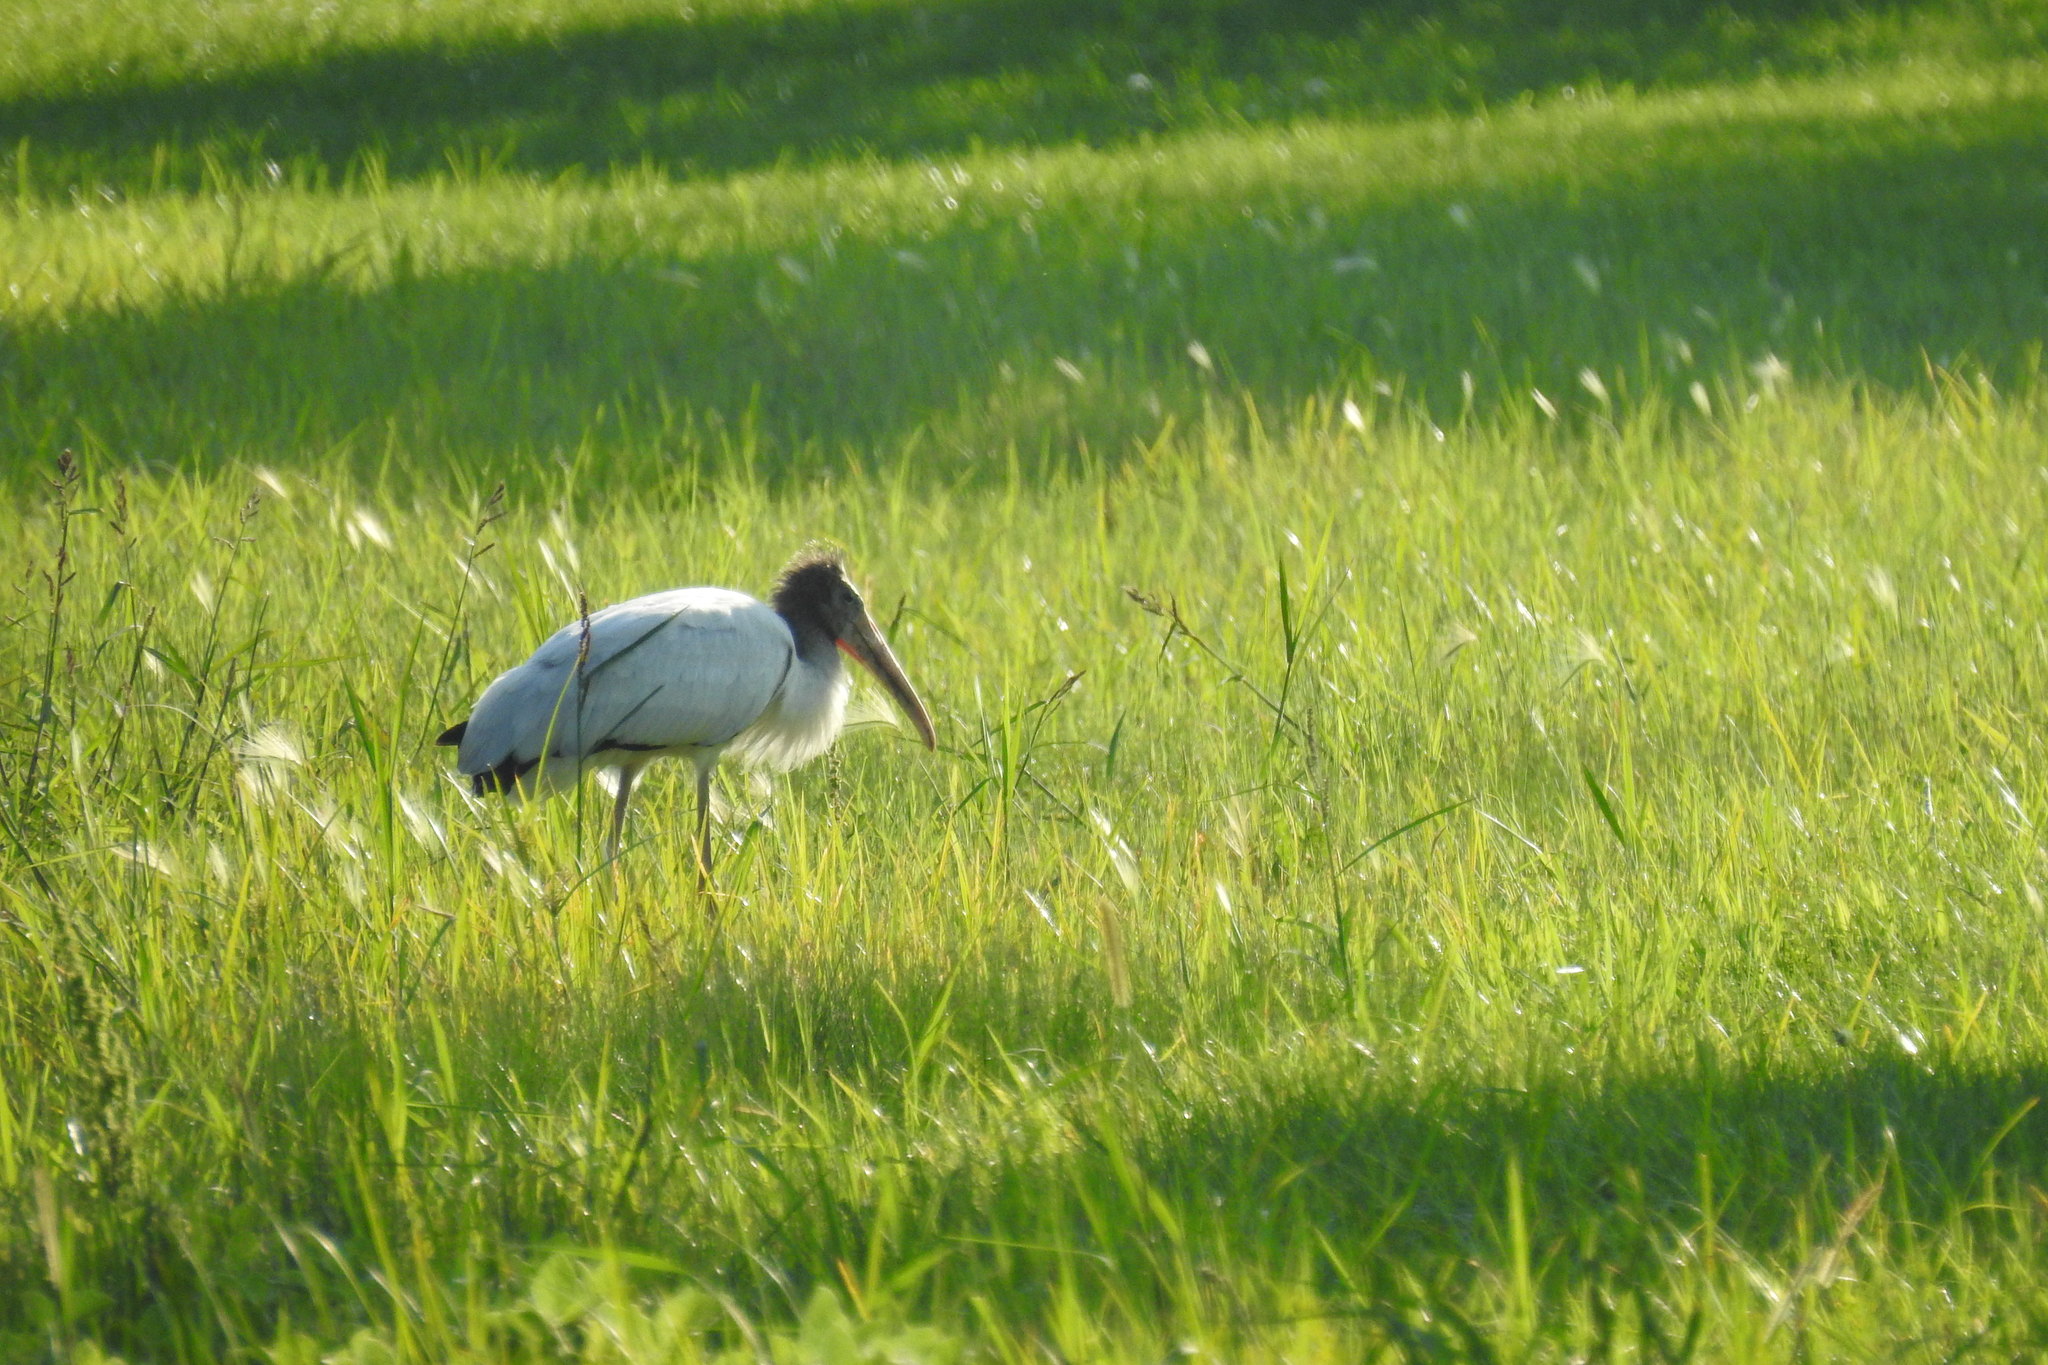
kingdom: Animalia
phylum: Chordata
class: Aves
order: Ciconiiformes
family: Ciconiidae
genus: Mycteria
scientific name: Mycteria americana
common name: Wood stork
